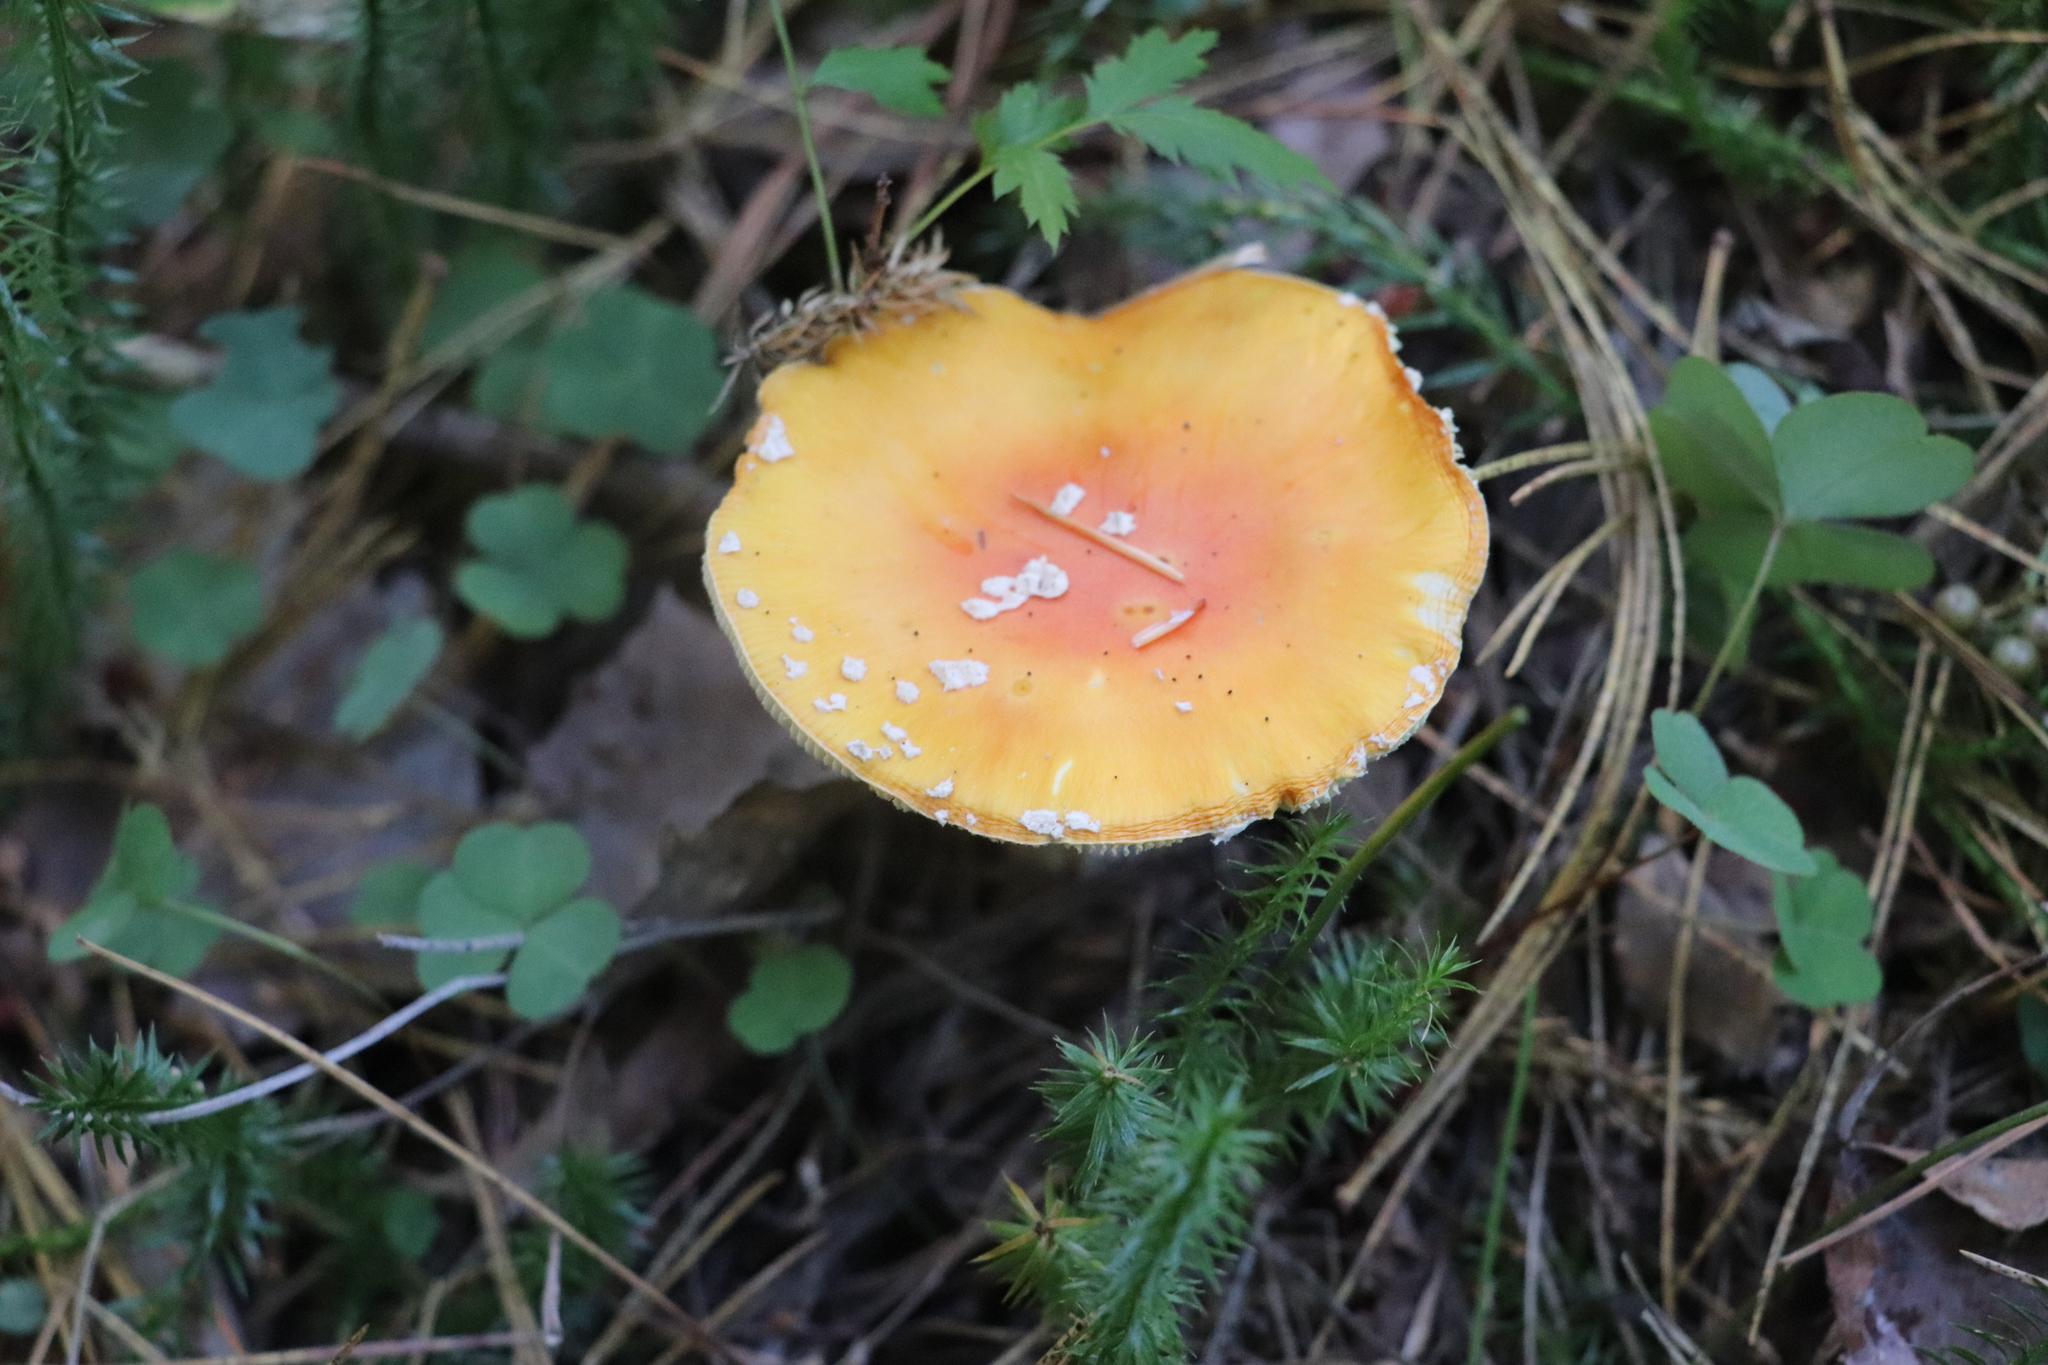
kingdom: Fungi
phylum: Basidiomycota
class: Agaricomycetes
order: Agaricales
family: Amanitaceae
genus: Amanita
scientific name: Amanita muscaria
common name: Fly agaric
